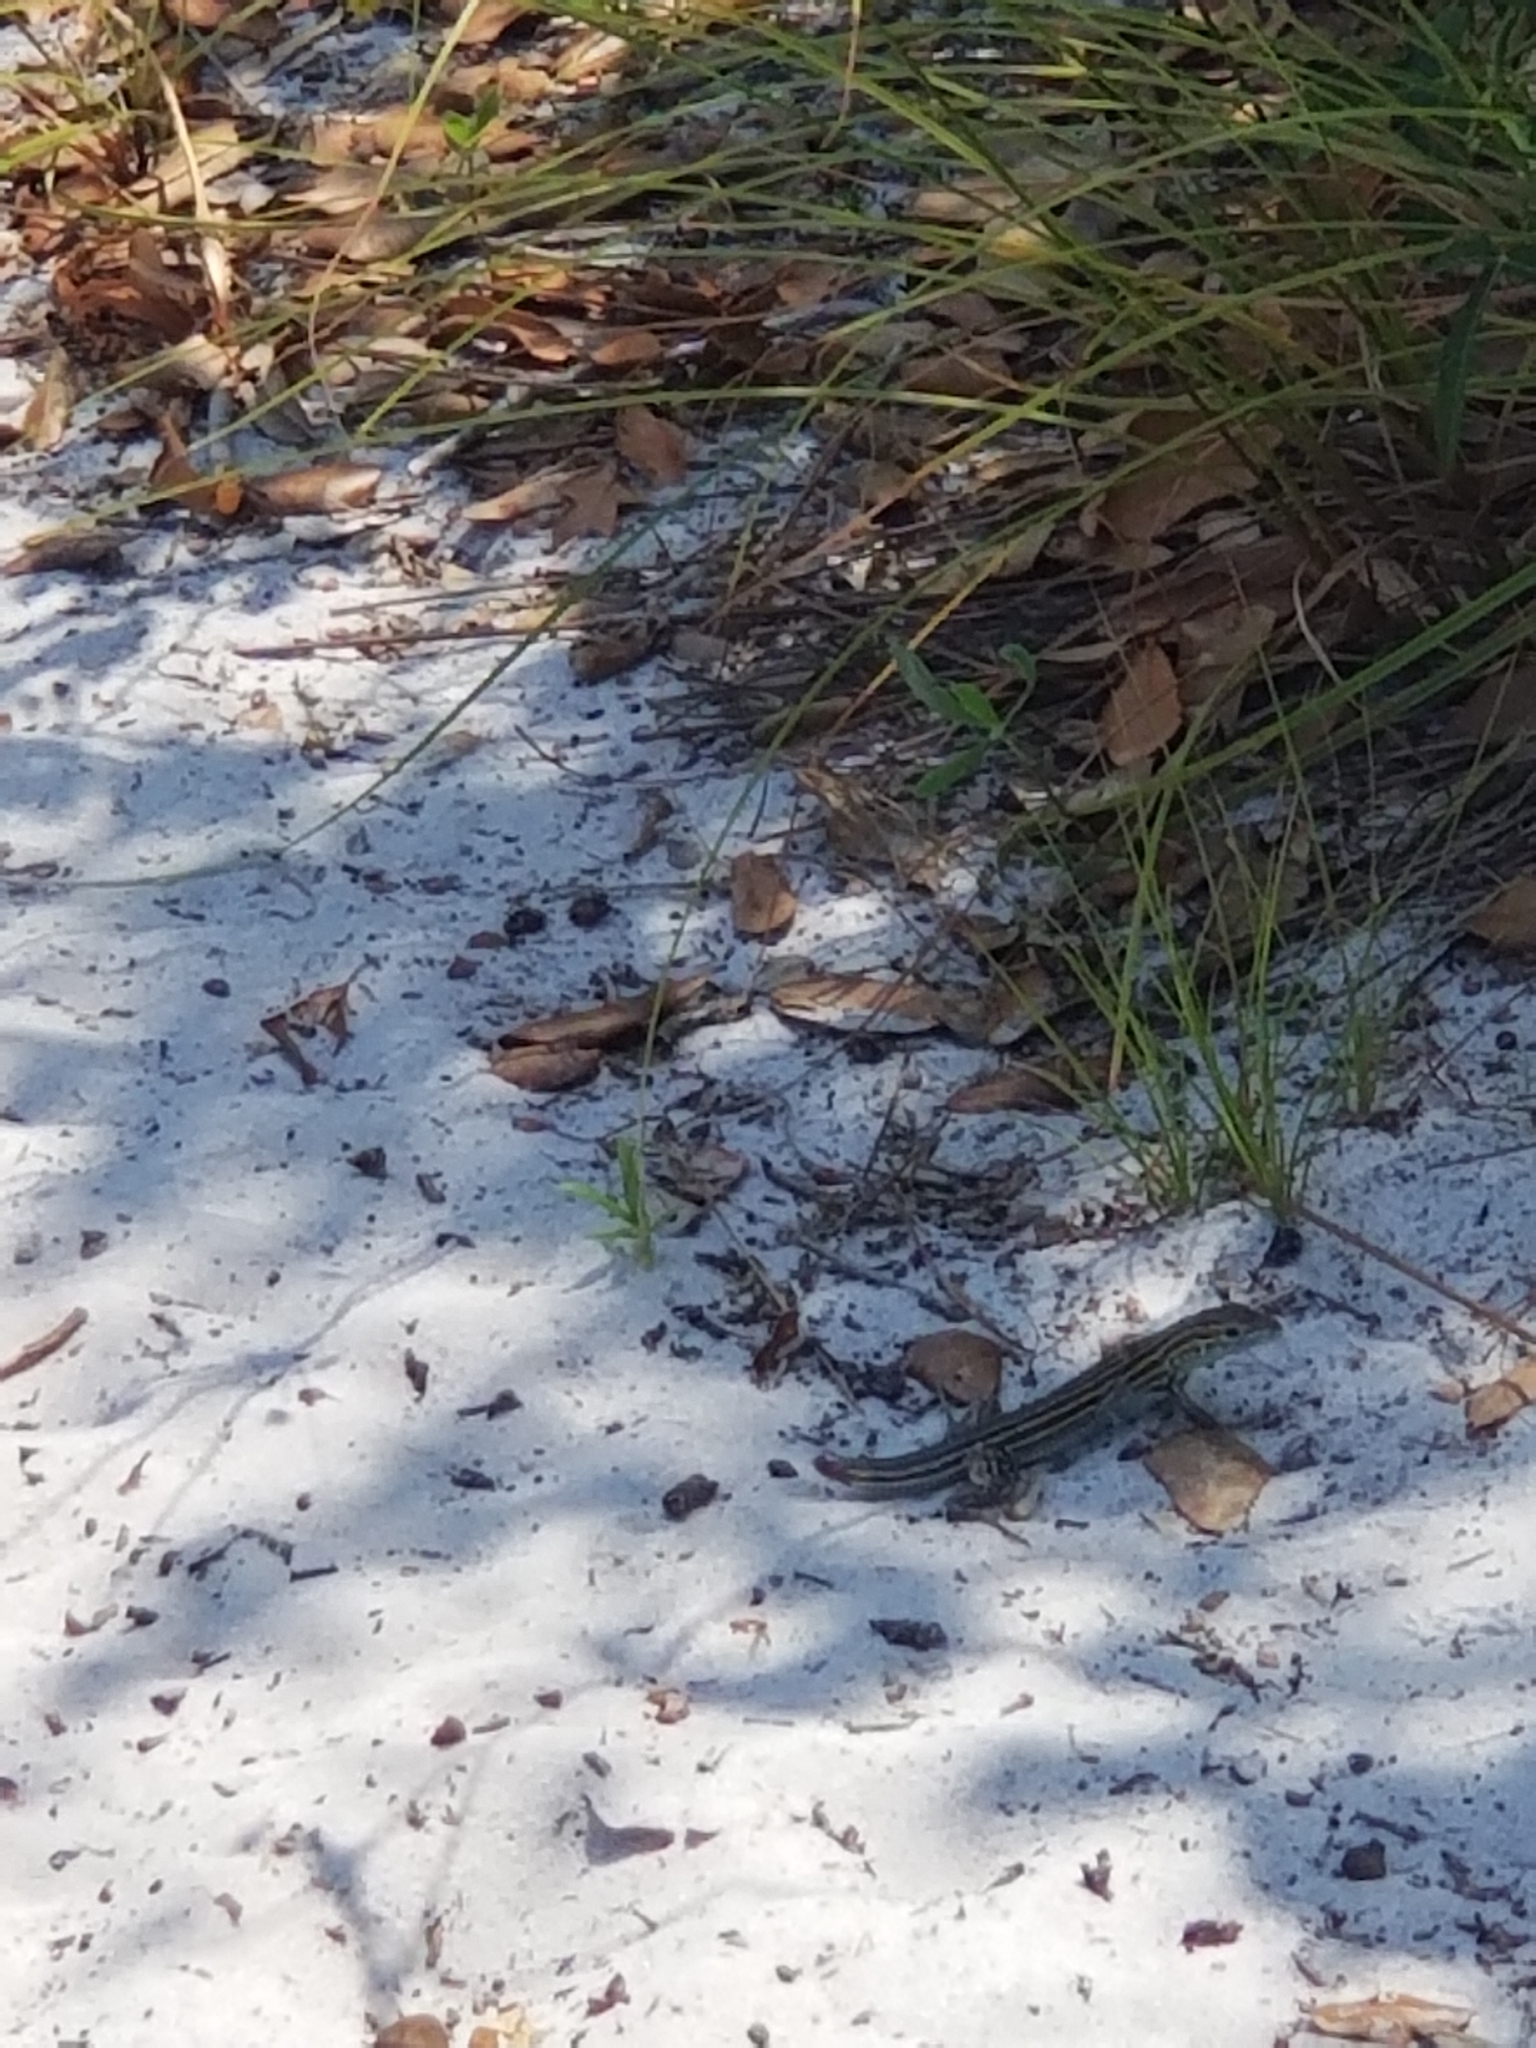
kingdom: Animalia
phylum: Chordata
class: Squamata
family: Teiidae
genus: Aspidoscelis
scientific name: Aspidoscelis sexlineatus
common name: Six-lined racerunner
